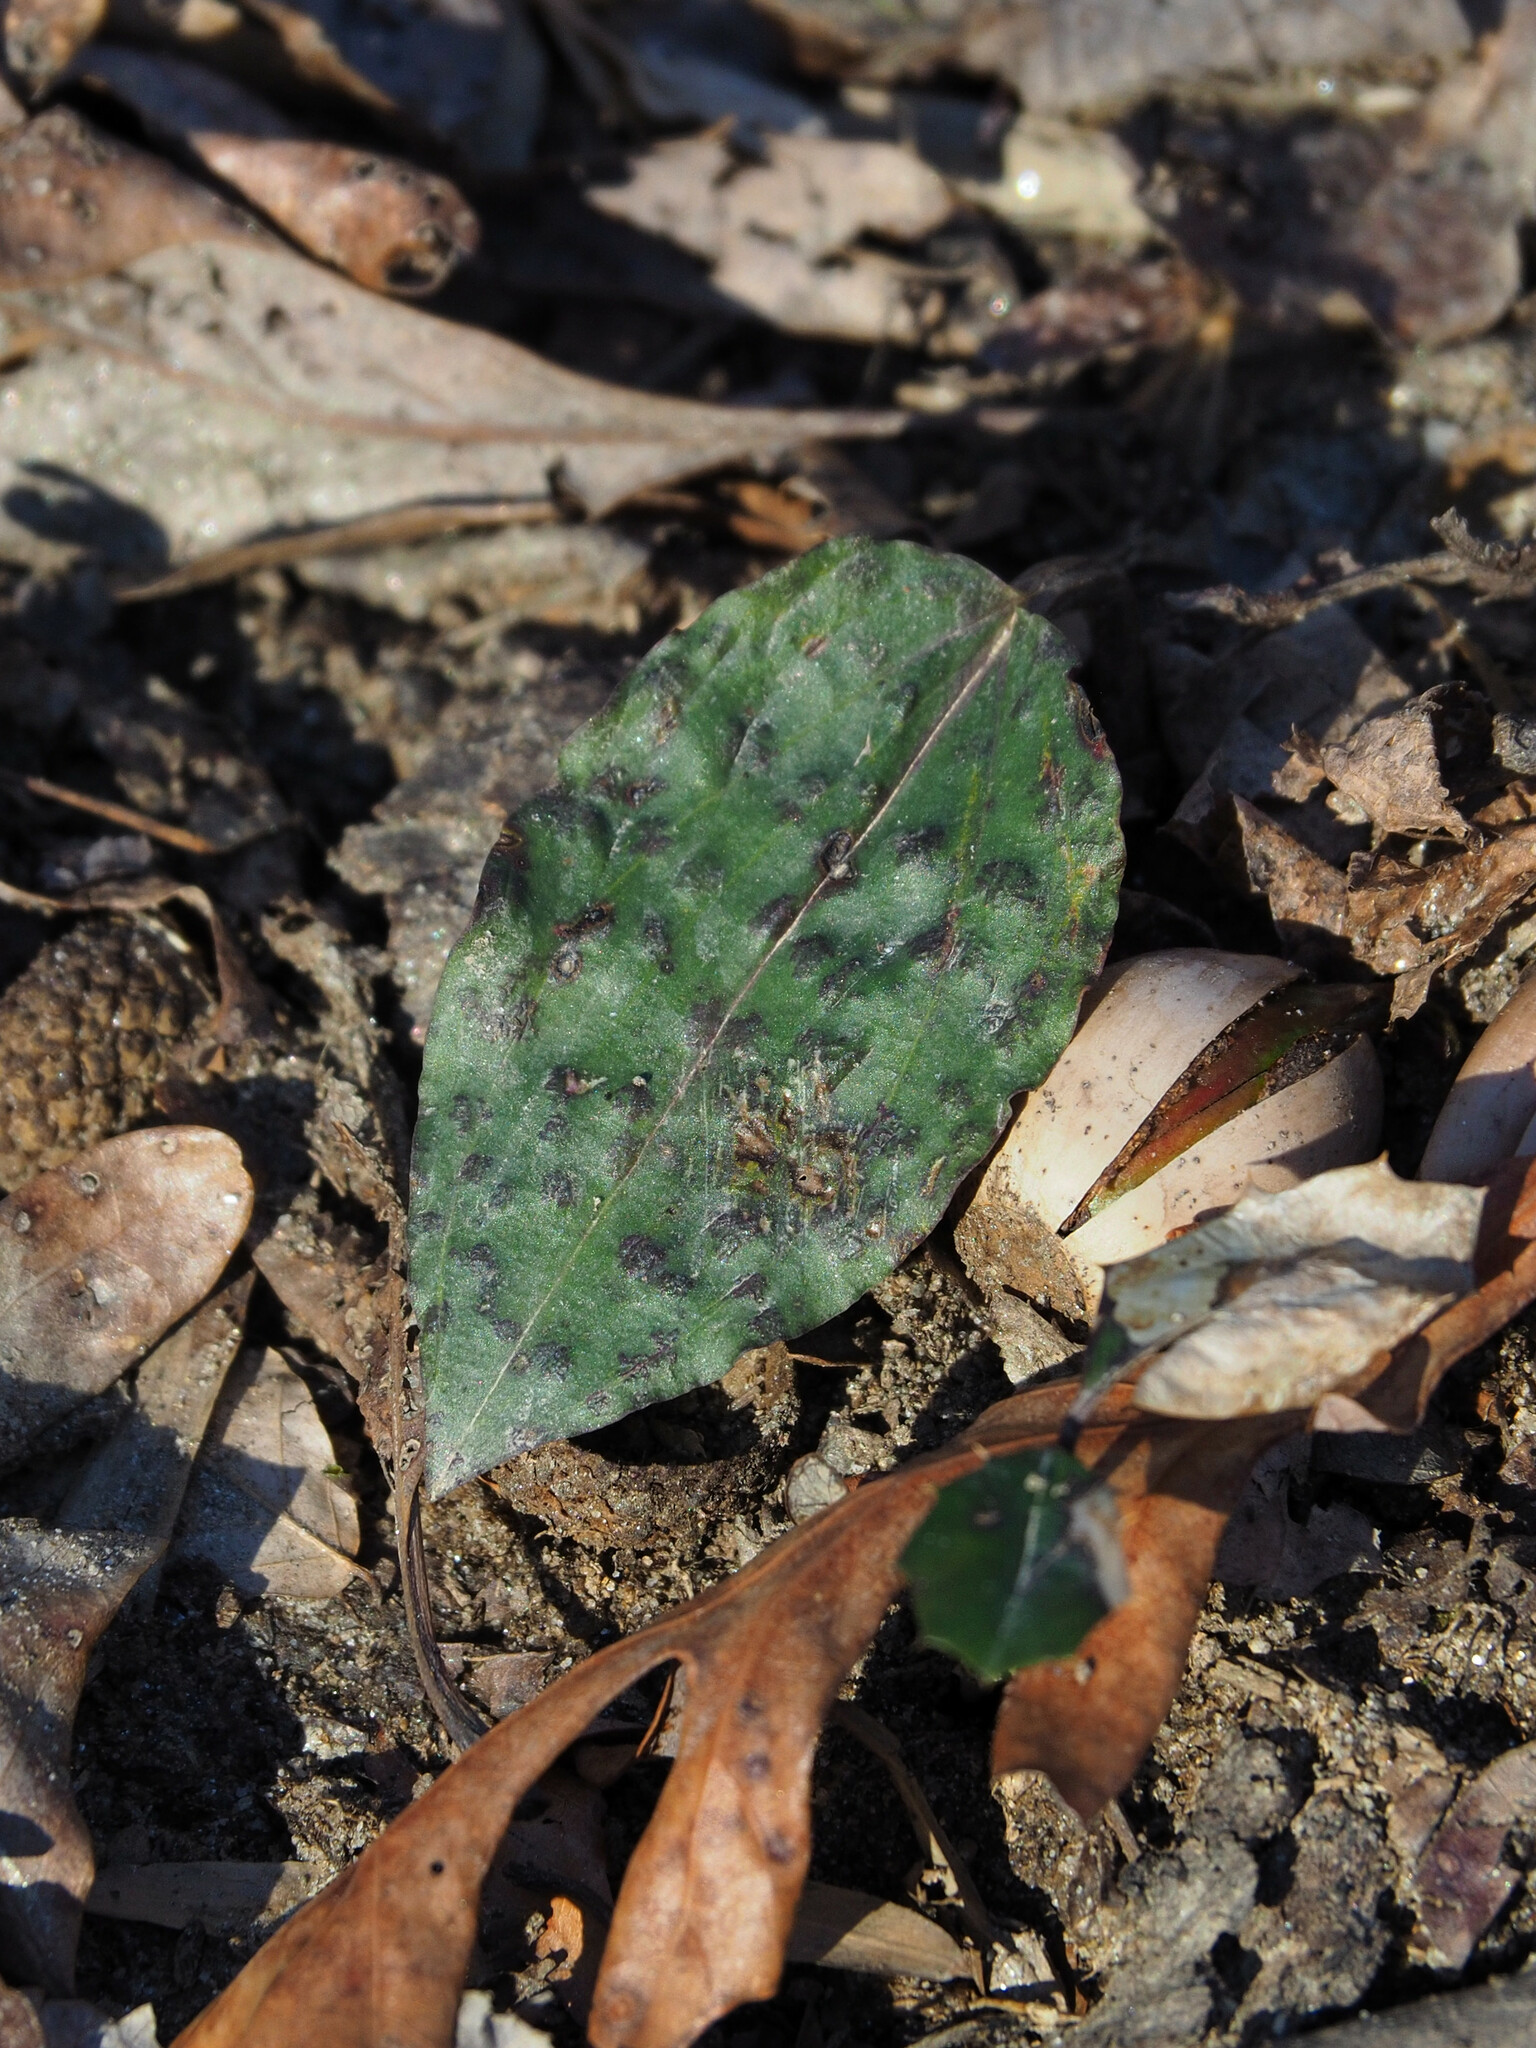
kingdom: Plantae
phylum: Tracheophyta
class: Liliopsida
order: Asparagales
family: Orchidaceae
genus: Tipularia
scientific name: Tipularia discolor
